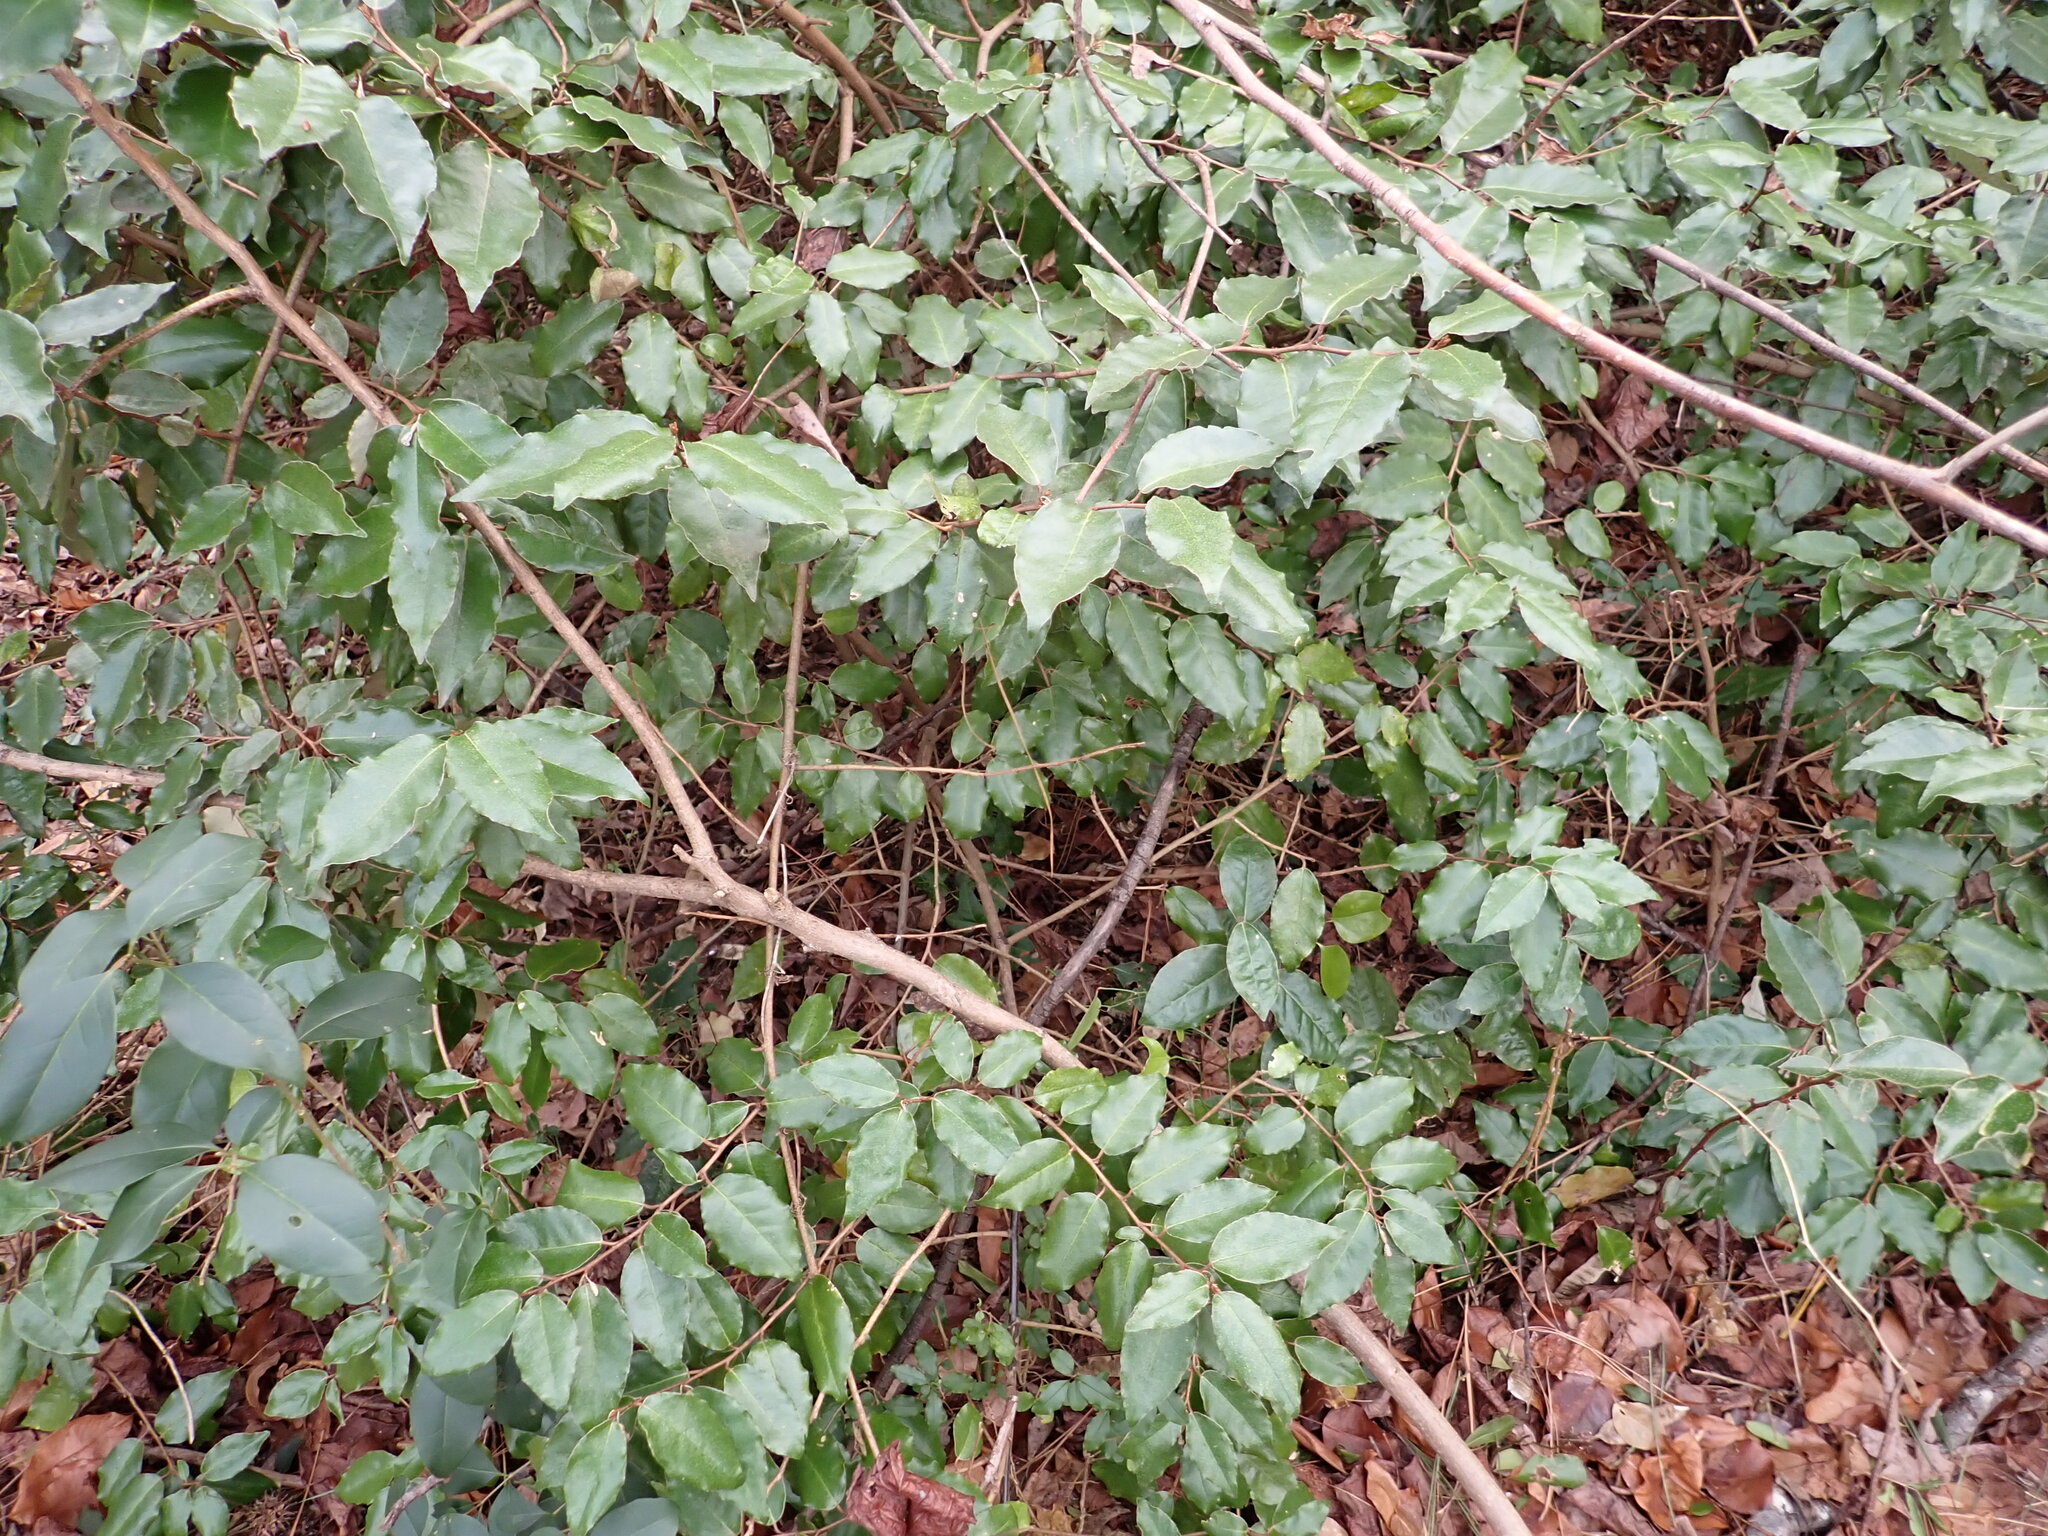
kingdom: Plantae
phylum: Tracheophyta
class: Magnoliopsida
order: Rosales
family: Elaeagnaceae
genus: Elaeagnus
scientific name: Elaeagnus pungens
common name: Spiny oleaster
